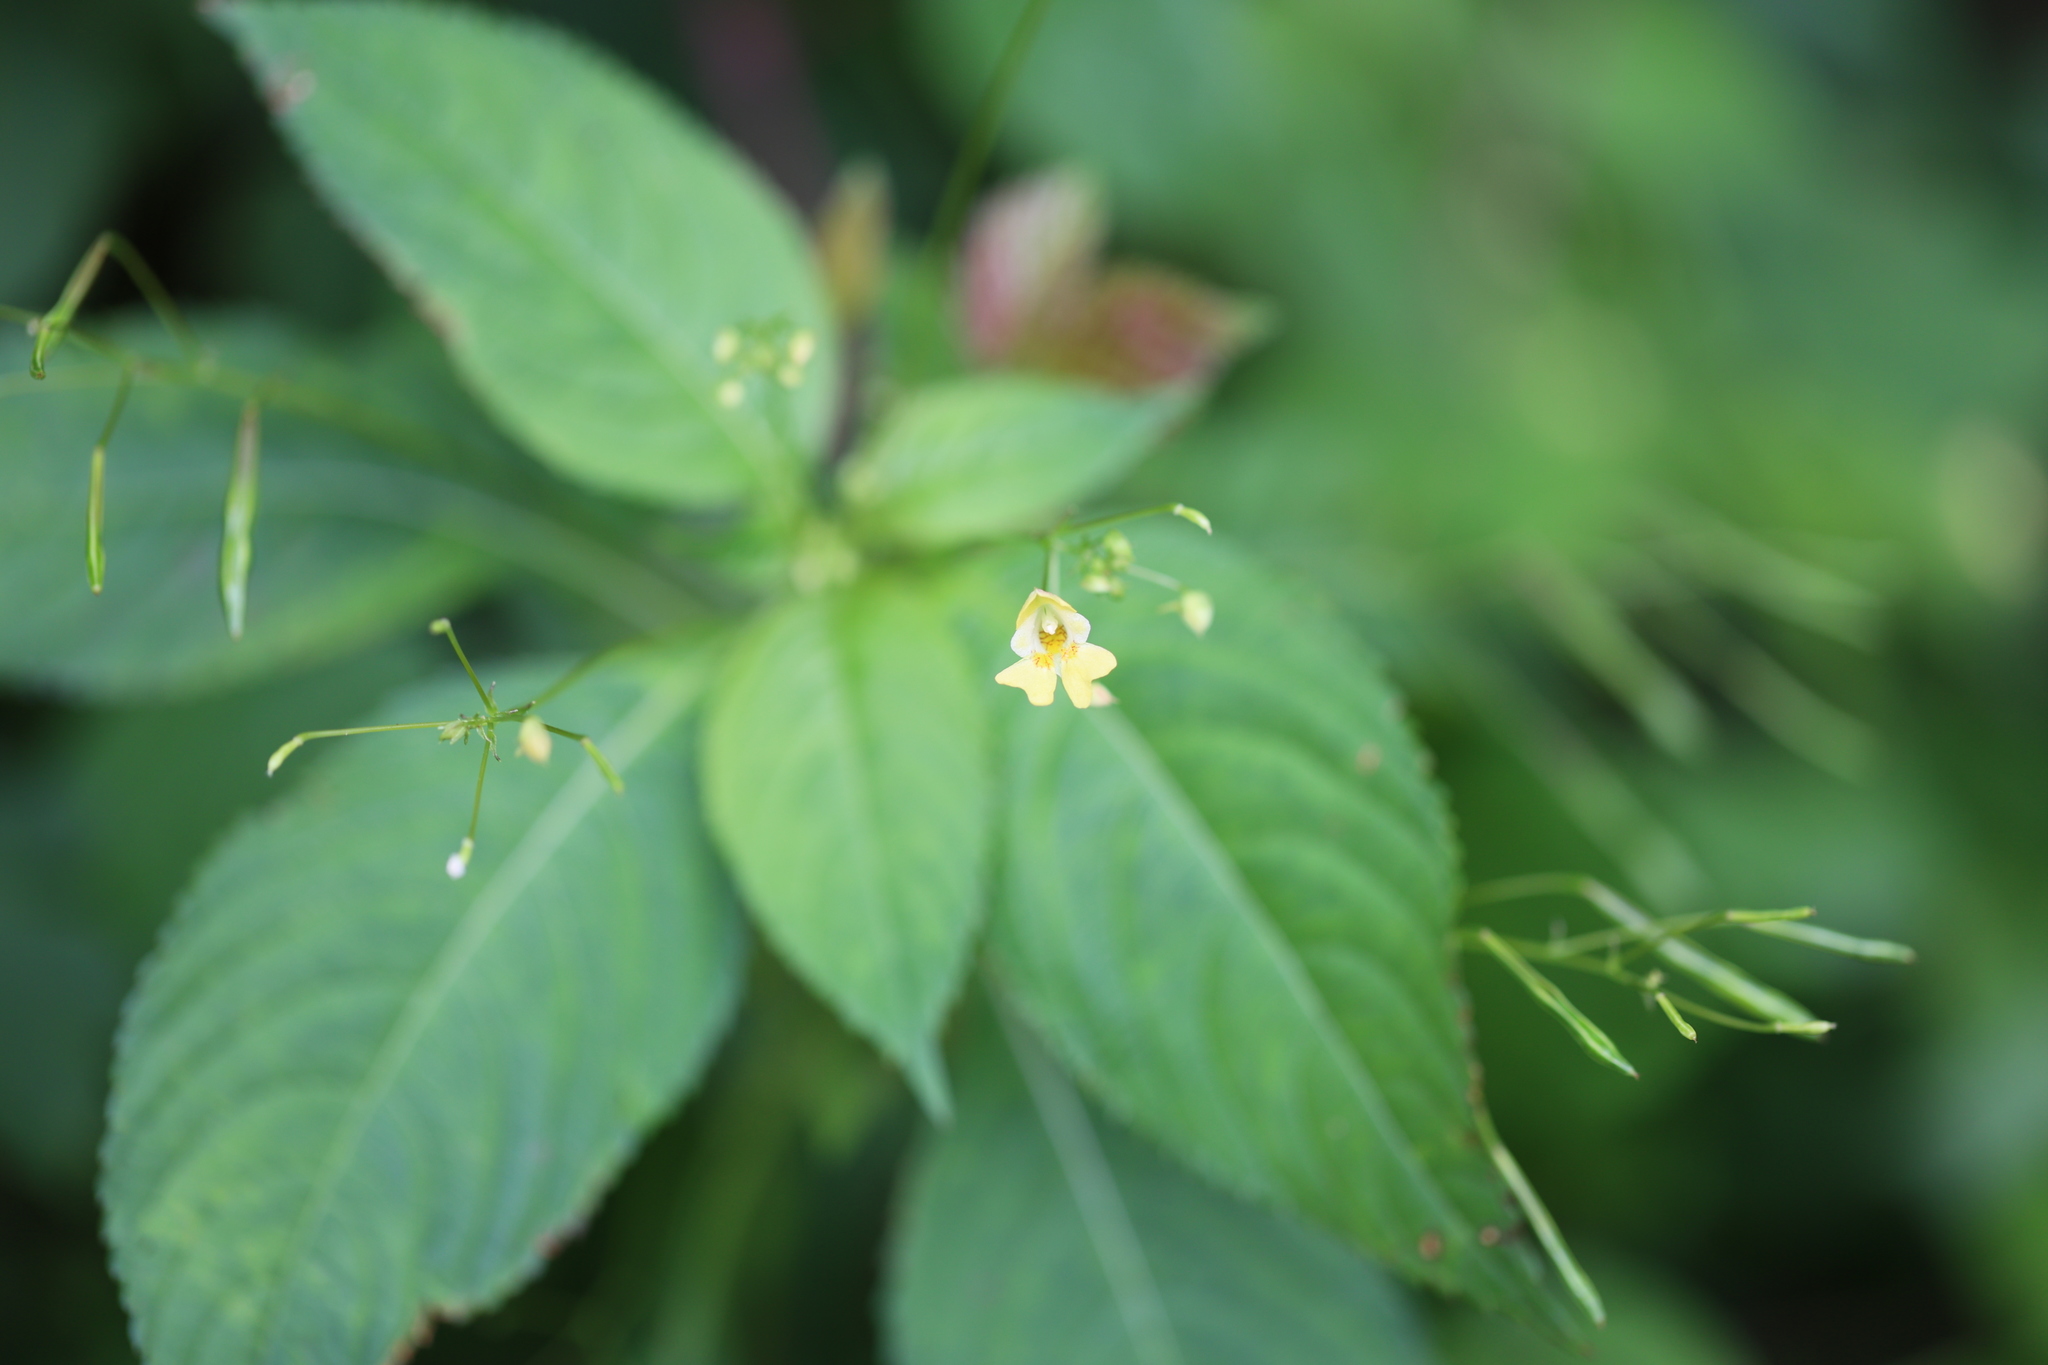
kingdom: Plantae
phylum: Tracheophyta
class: Magnoliopsida
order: Ericales
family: Balsaminaceae
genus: Impatiens
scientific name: Impatiens parviflora
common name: Small balsam
